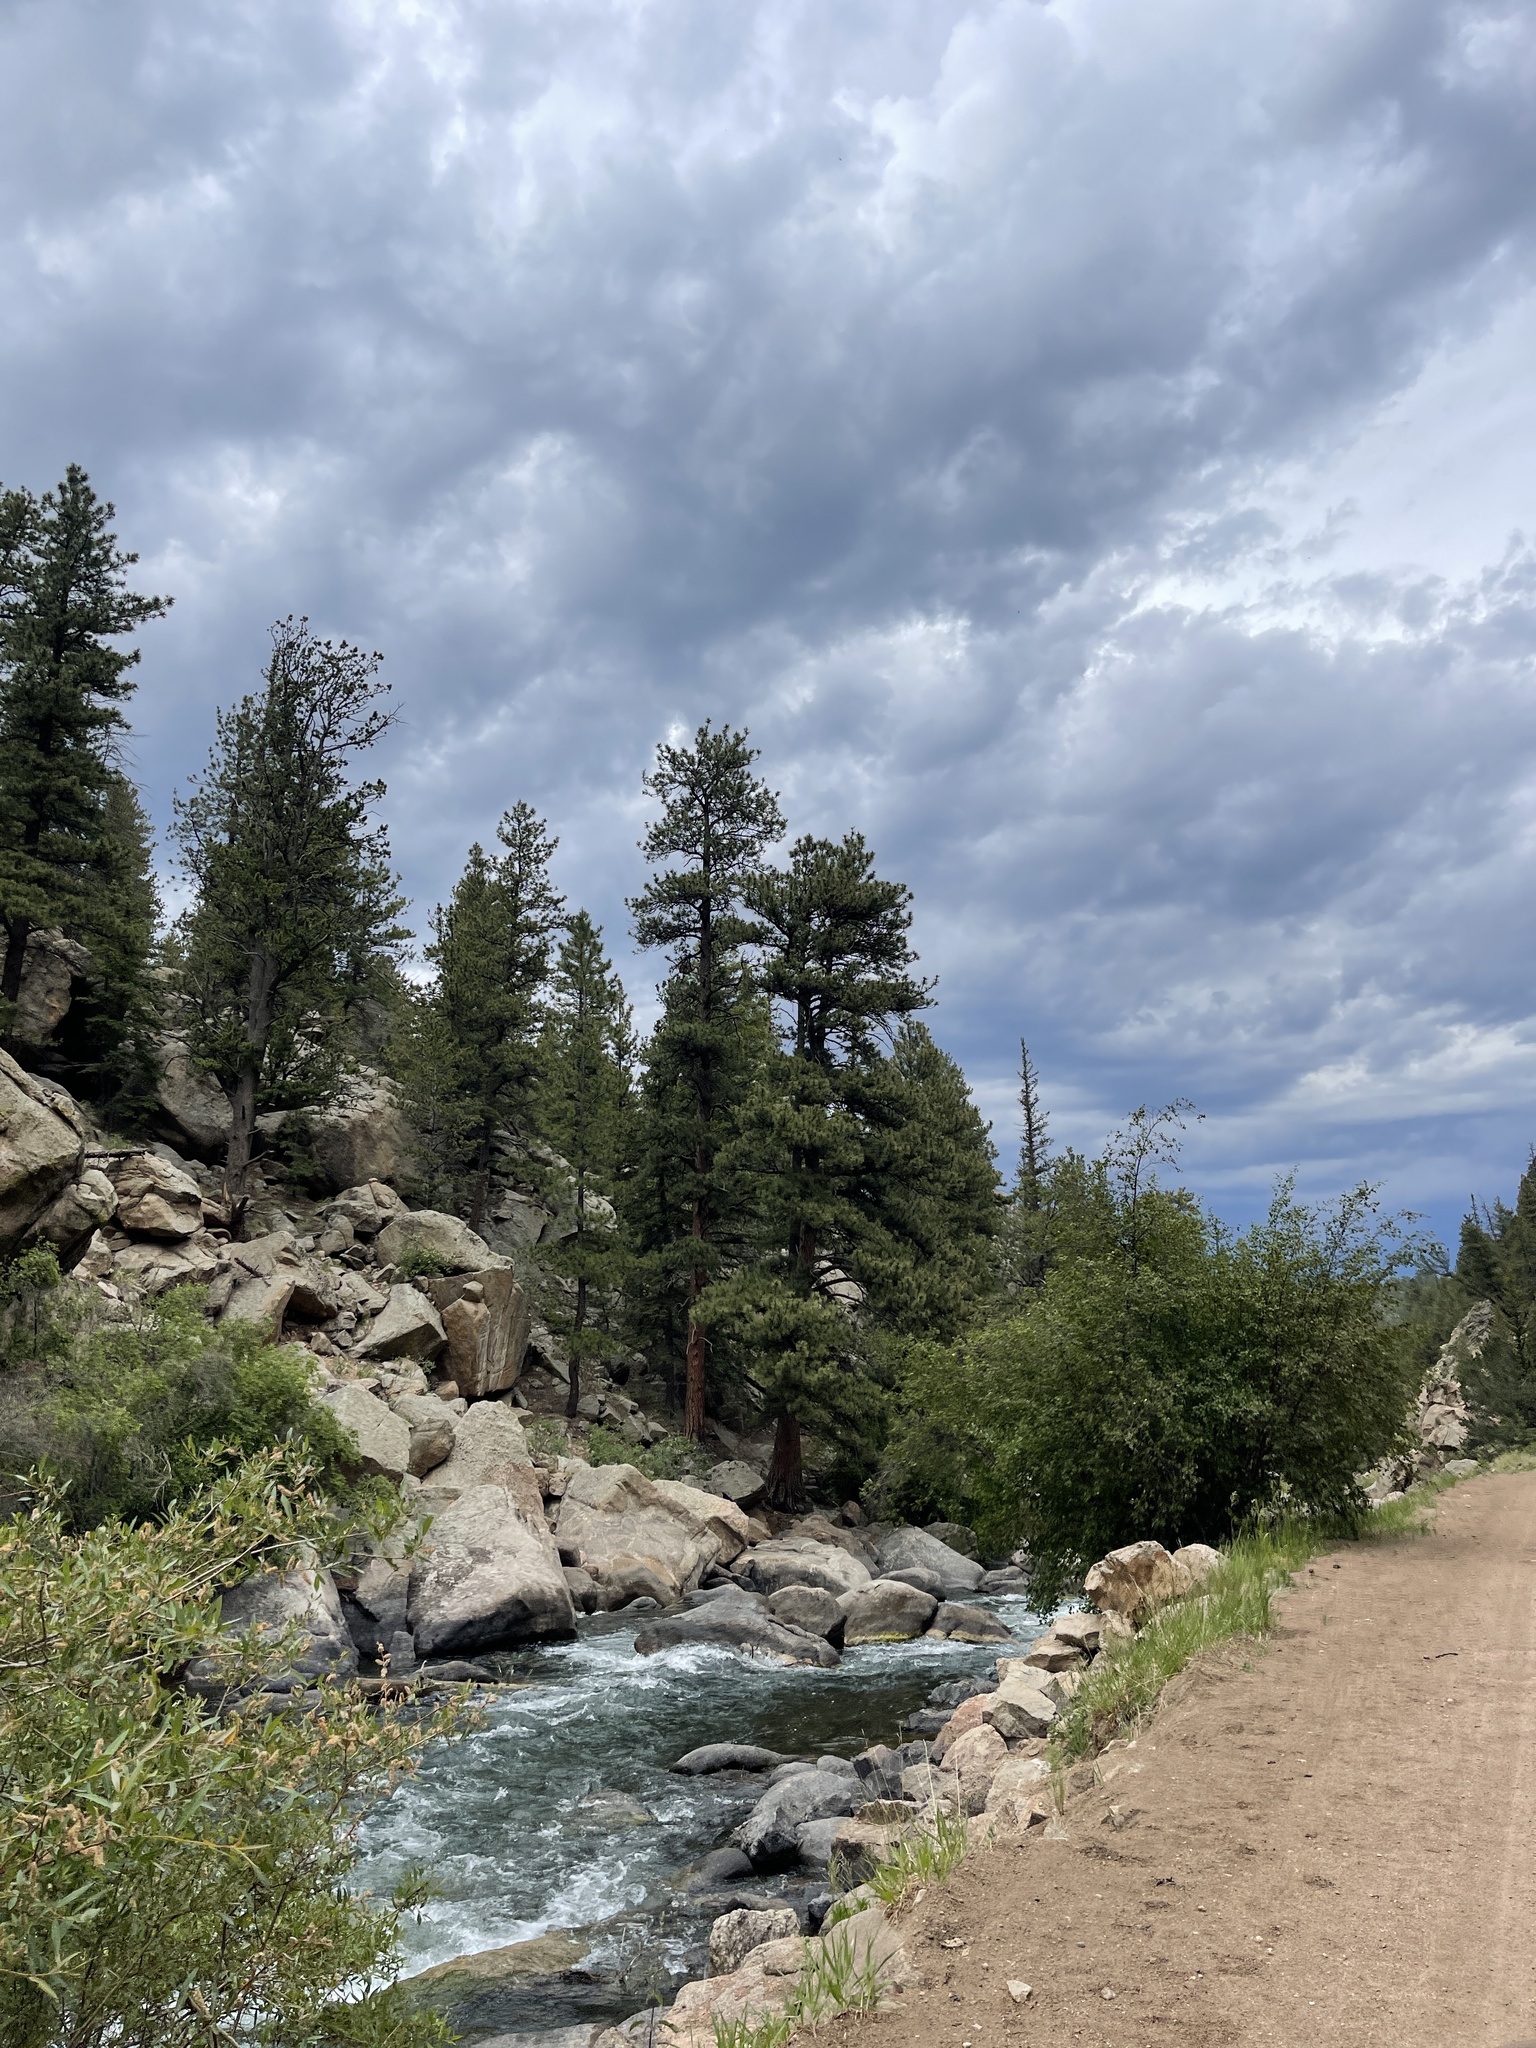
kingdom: Plantae
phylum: Tracheophyta
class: Pinopsida
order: Pinales
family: Pinaceae
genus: Pinus
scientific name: Pinus ponderosa
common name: Western yellow-pine
